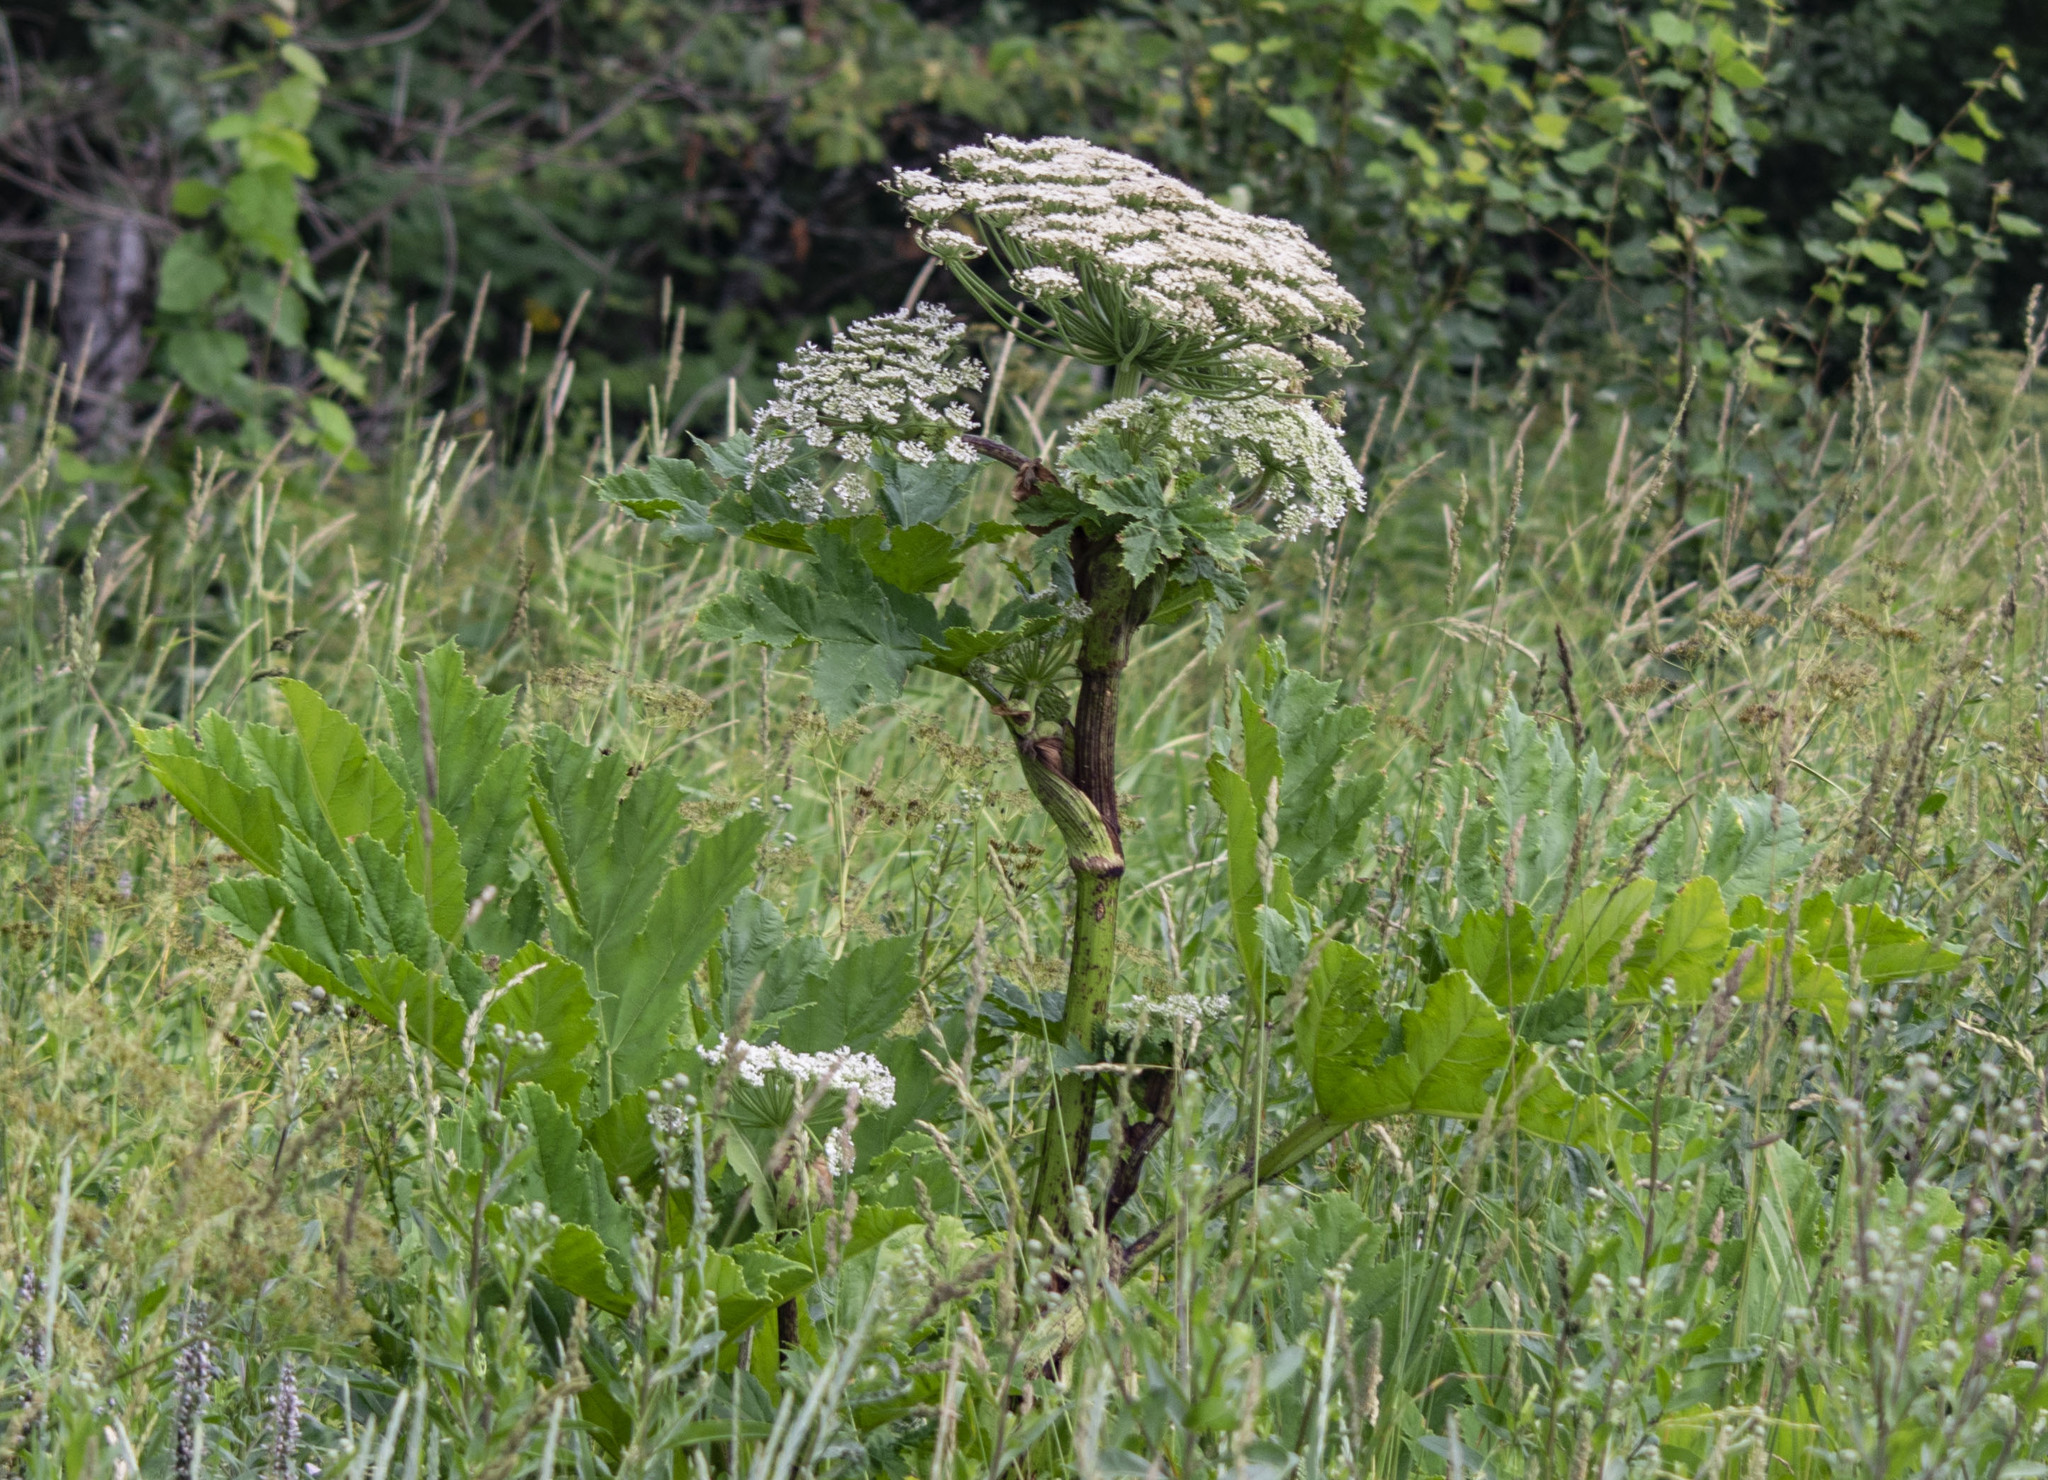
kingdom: Plantae
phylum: Tracheophyta
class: Magnoliopsida
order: Apiales
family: Apiaceae
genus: Heracleum
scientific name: Heracleum sosnowskyi
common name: Sosnowsky's hogweed
